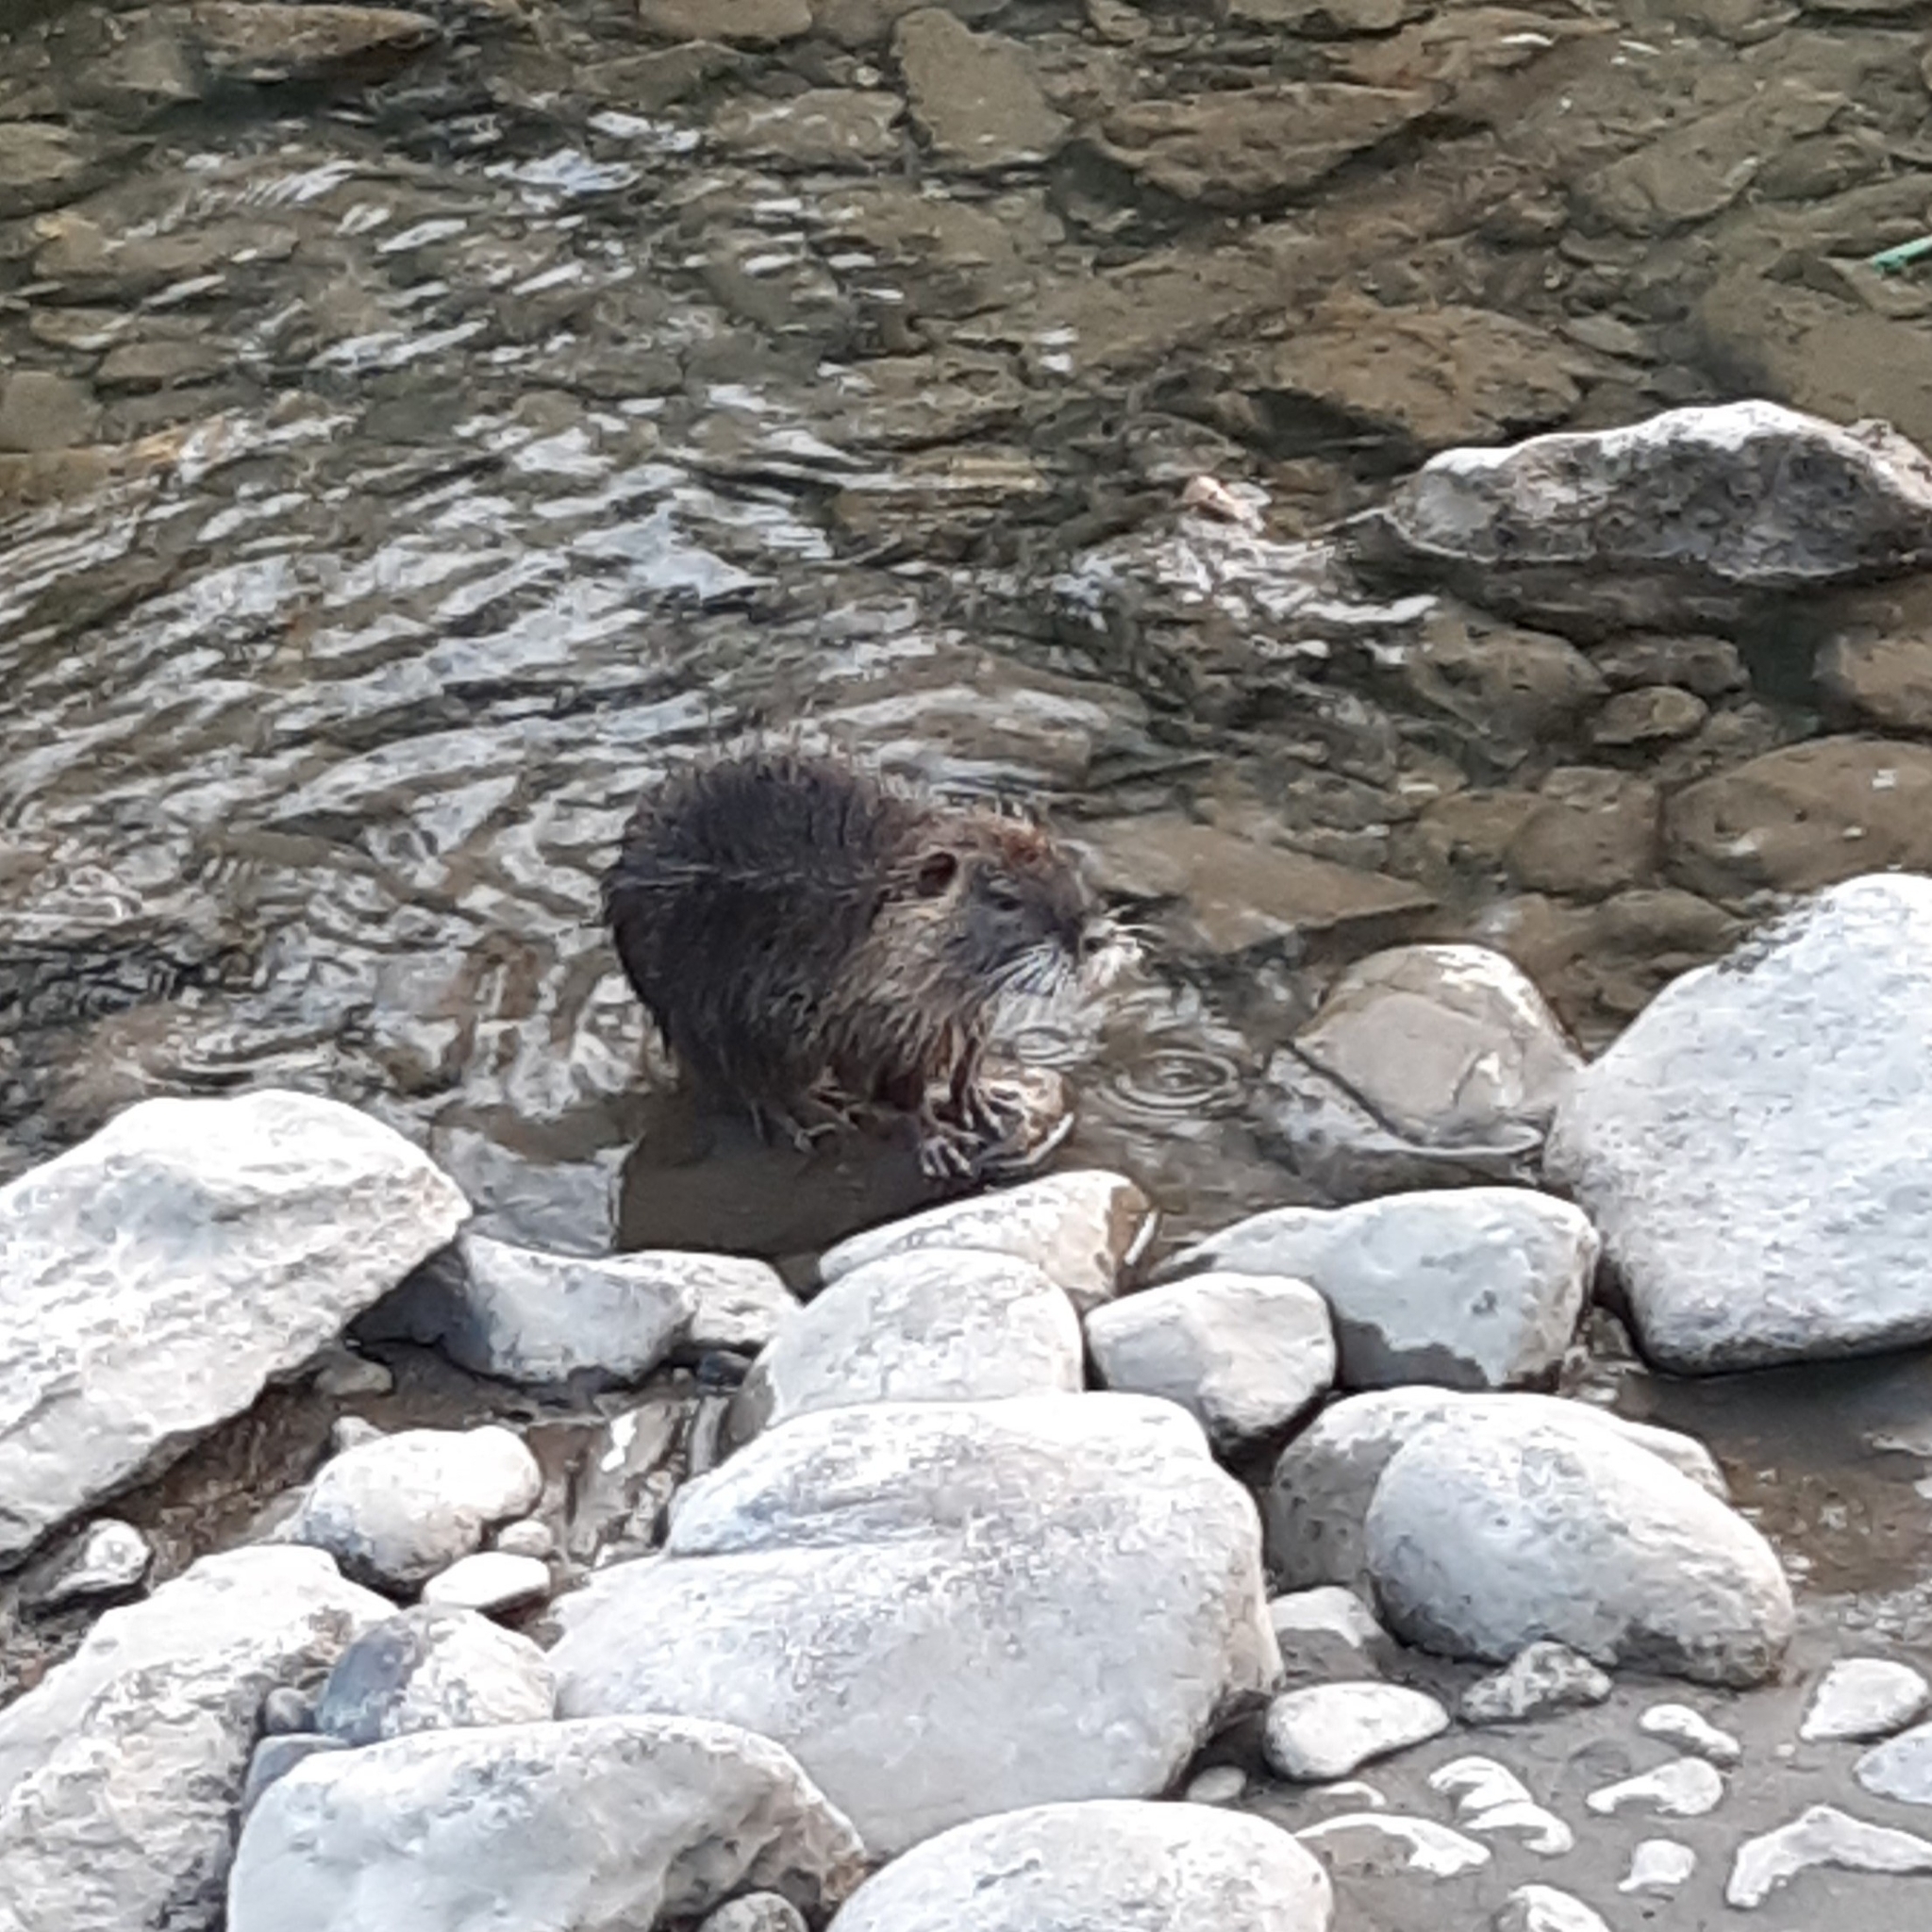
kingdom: Animalia
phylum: Chordata
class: Mammalia
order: Rodentia
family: Myocastoridae
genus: Myocastor
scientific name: Myocastor coypus
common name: Coypu
